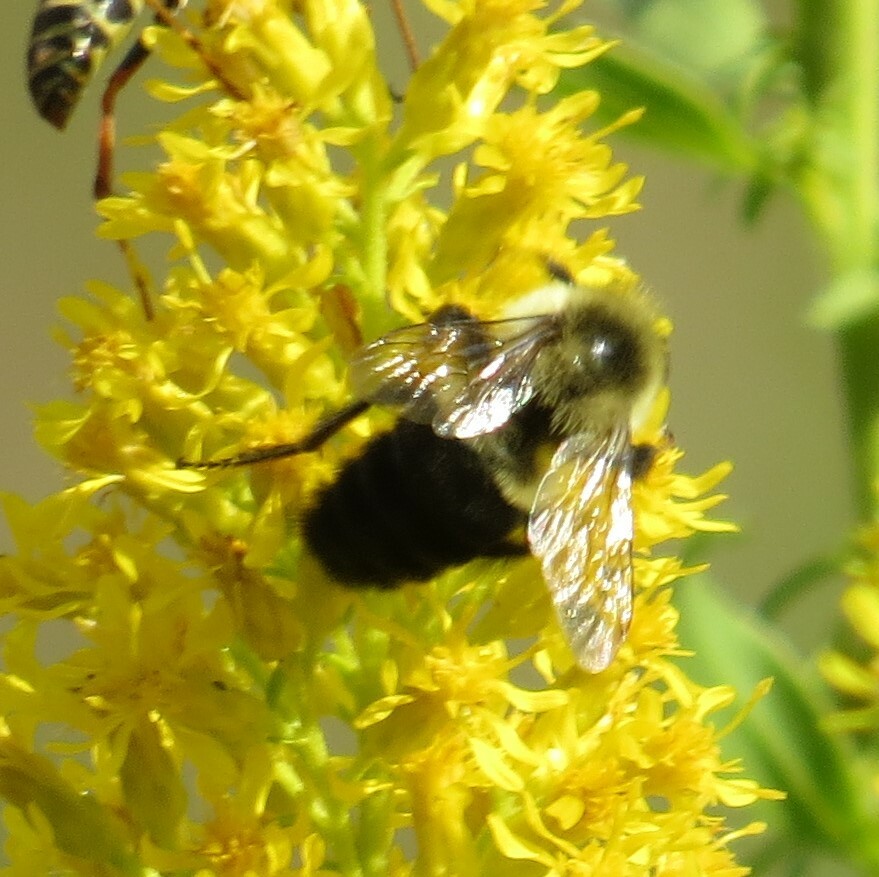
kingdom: Animalia
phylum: Arthropoda
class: Insecta
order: Hymenoptera
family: Apidae
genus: Bombus
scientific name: Bombus impatiens
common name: Common eastern bumble bee
